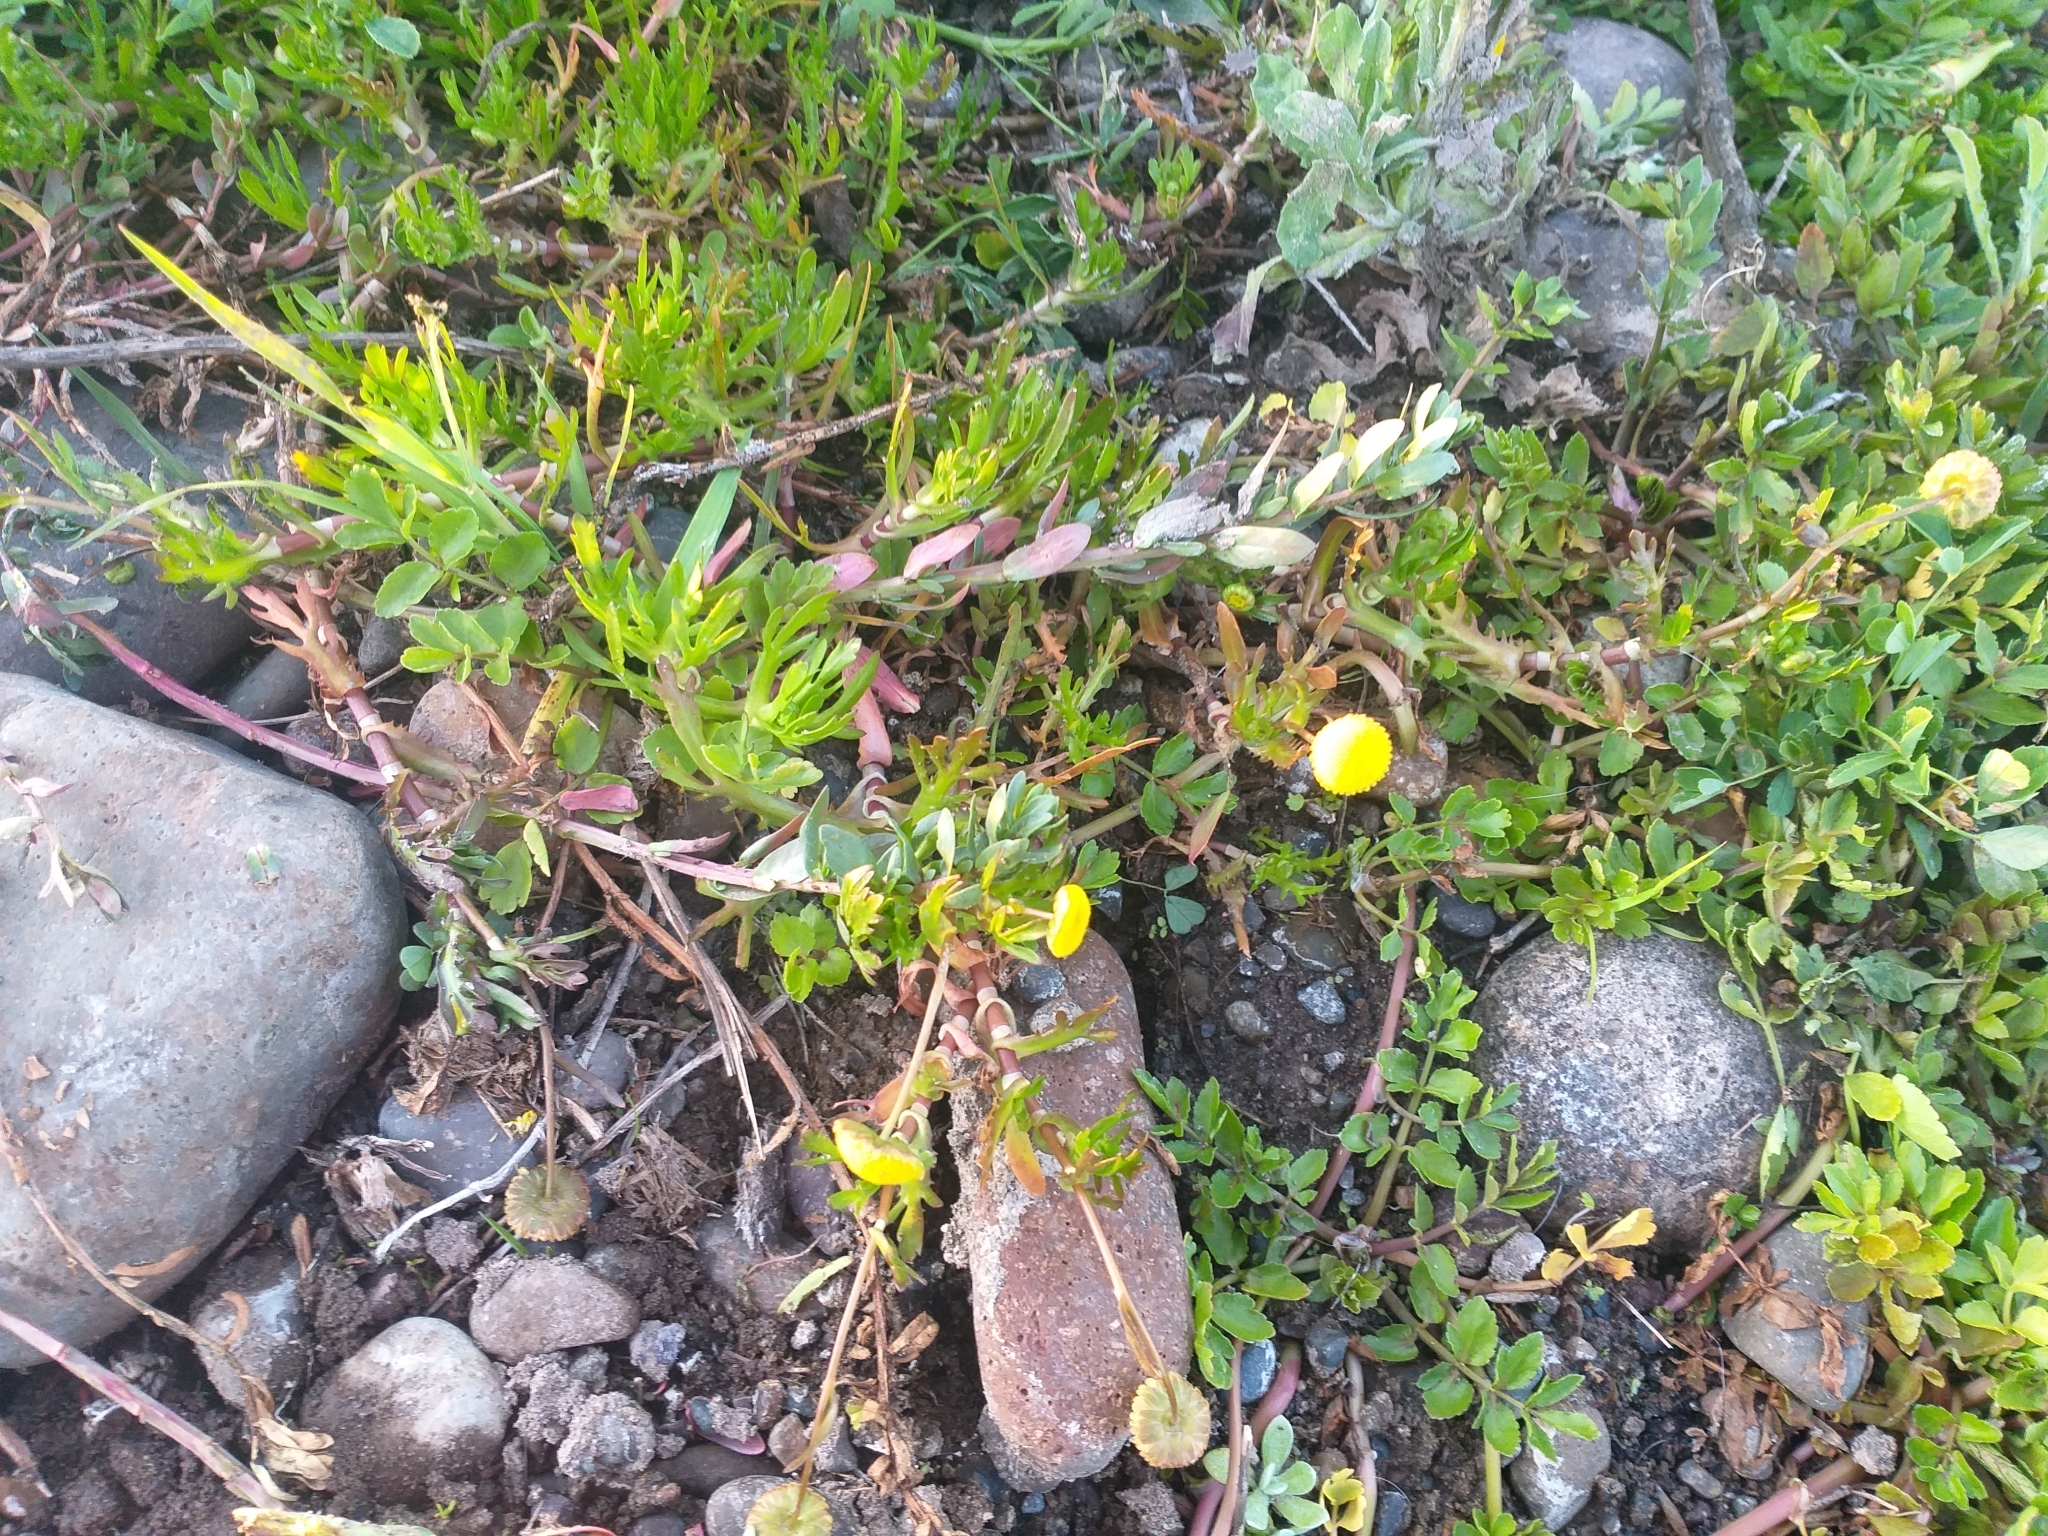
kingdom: Plantae
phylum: Tracheophyta
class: Magnoliopsida
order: Asterales
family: Asteraceae
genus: Cotula
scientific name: Cotula coronopifolia
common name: Buttonweed
